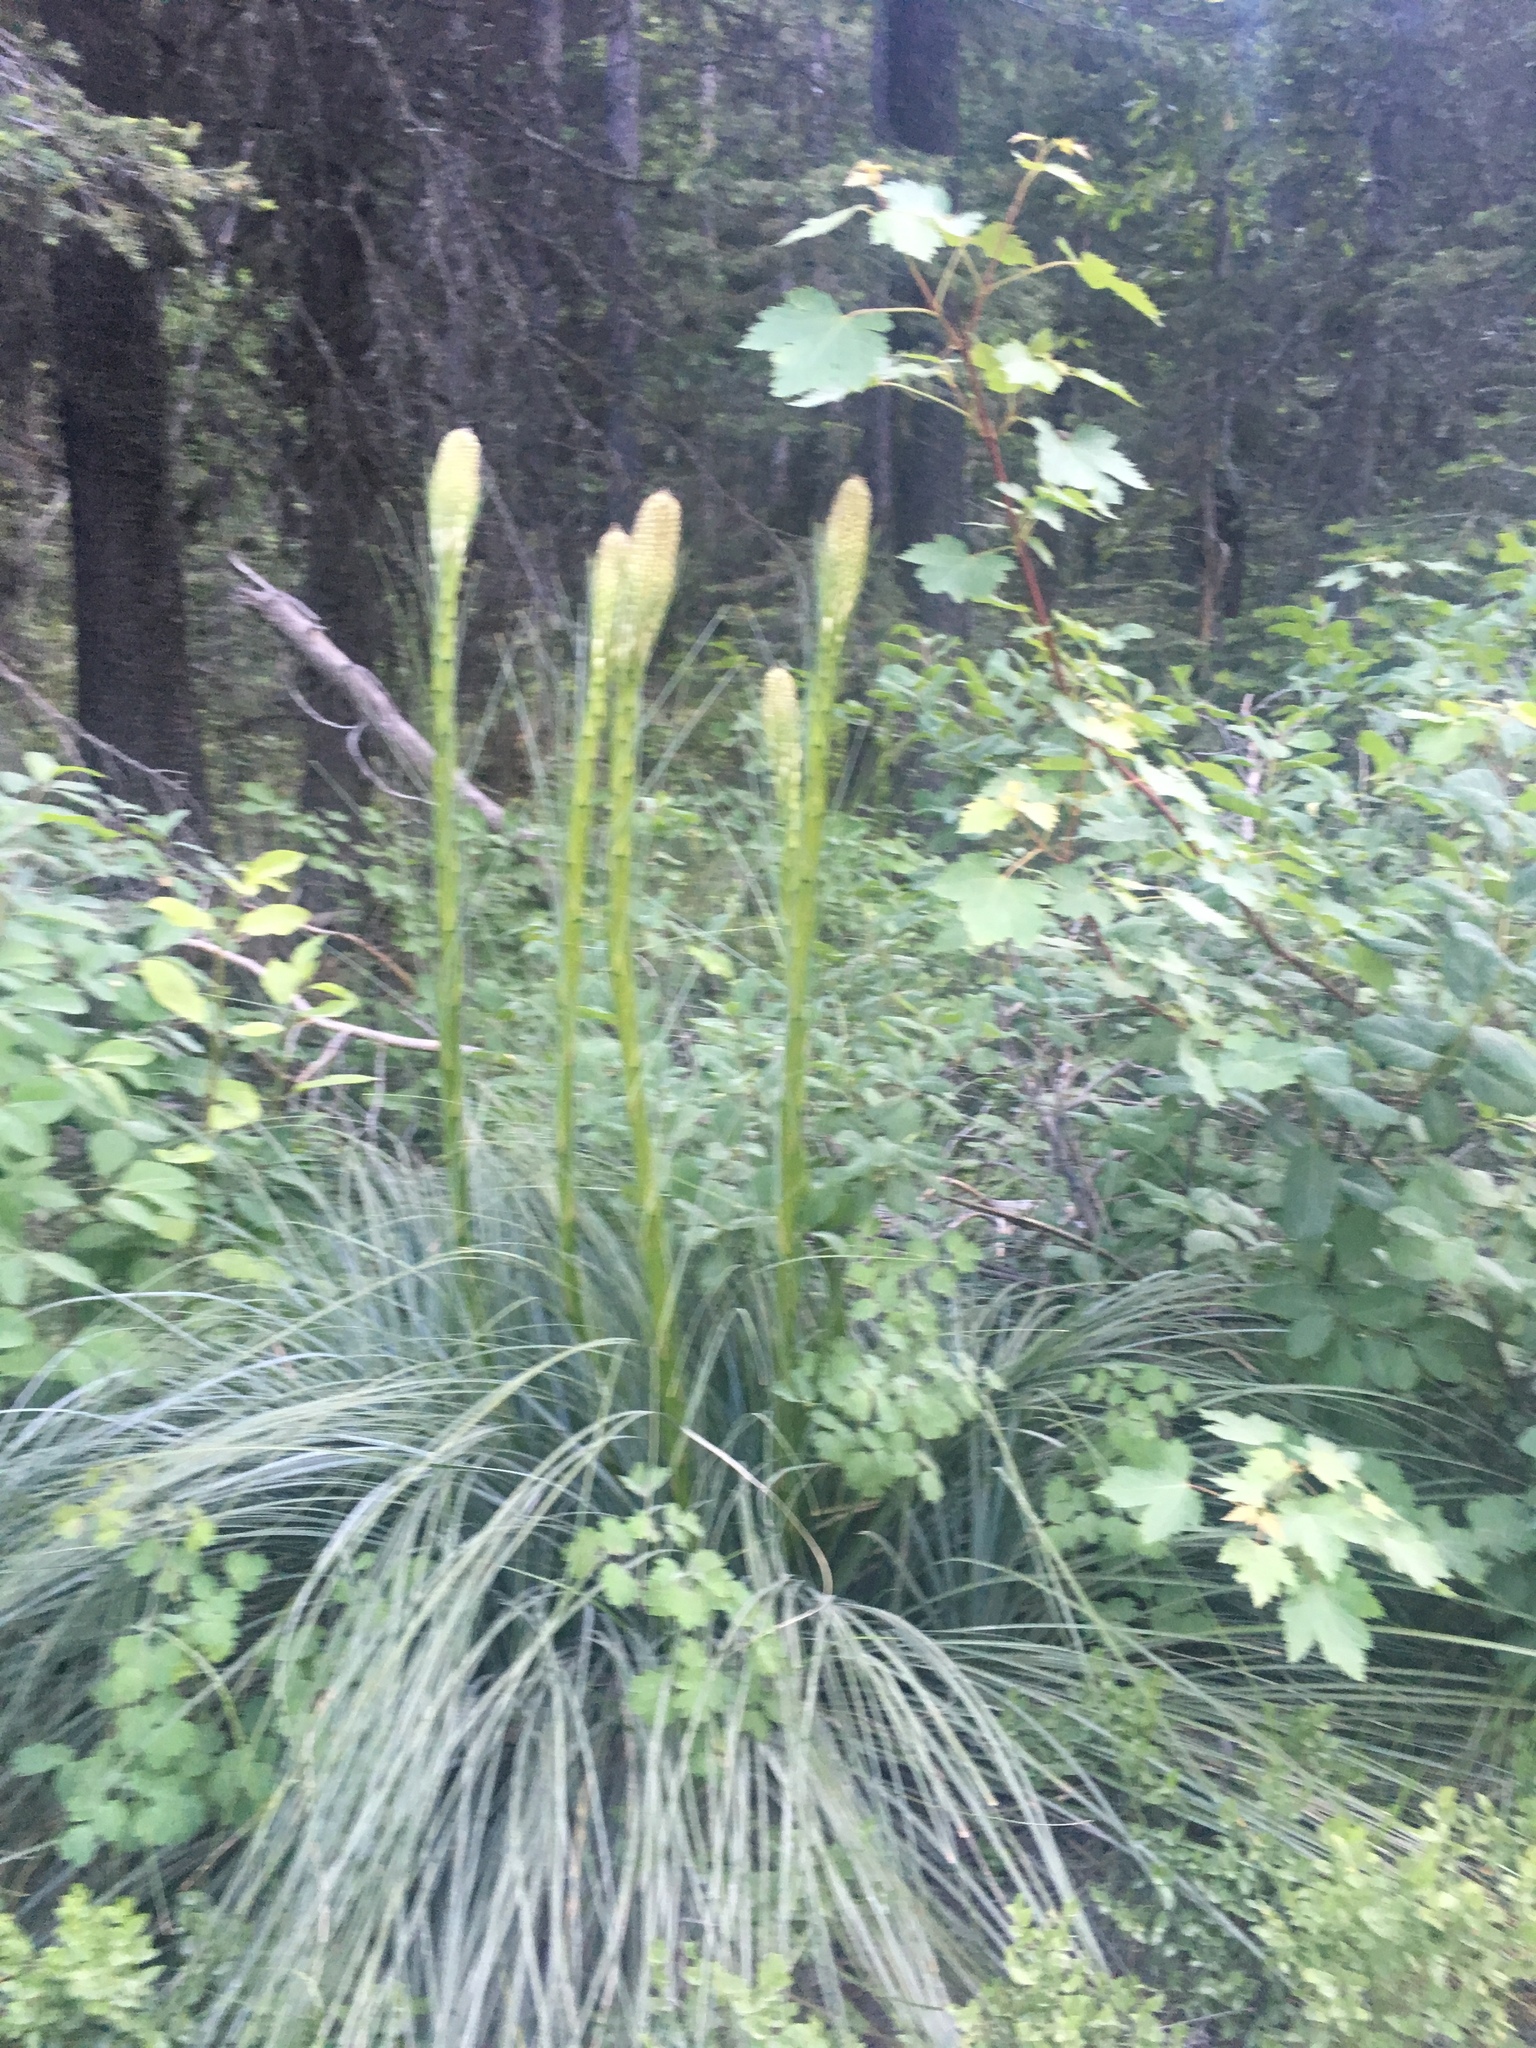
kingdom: Plantae
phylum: Tracheophyta
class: Liliopsida
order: Liliales
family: Melanthiaceae
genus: Xerophyllum
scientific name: Xerophyllum tenax
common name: Bear-grass
